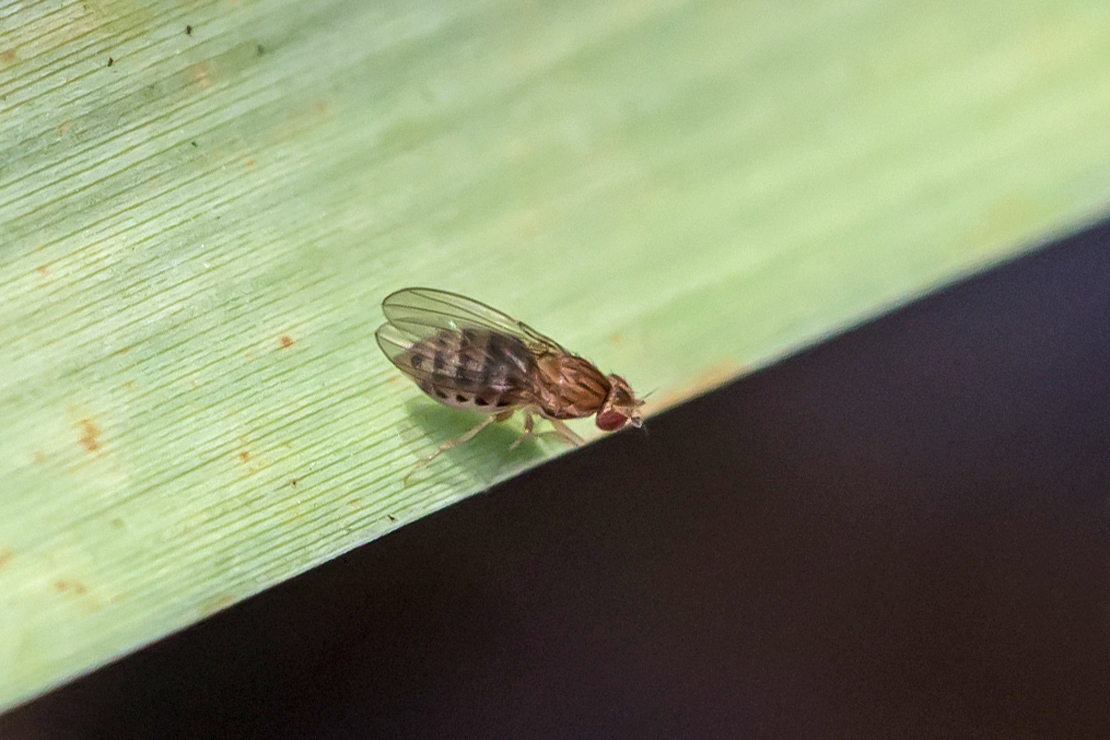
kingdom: Animalia
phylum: Arthropoda
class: Insecta
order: Diptera
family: Drosophilidae
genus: Drosophila
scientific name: Drosophila busckii
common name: Pomace fly
